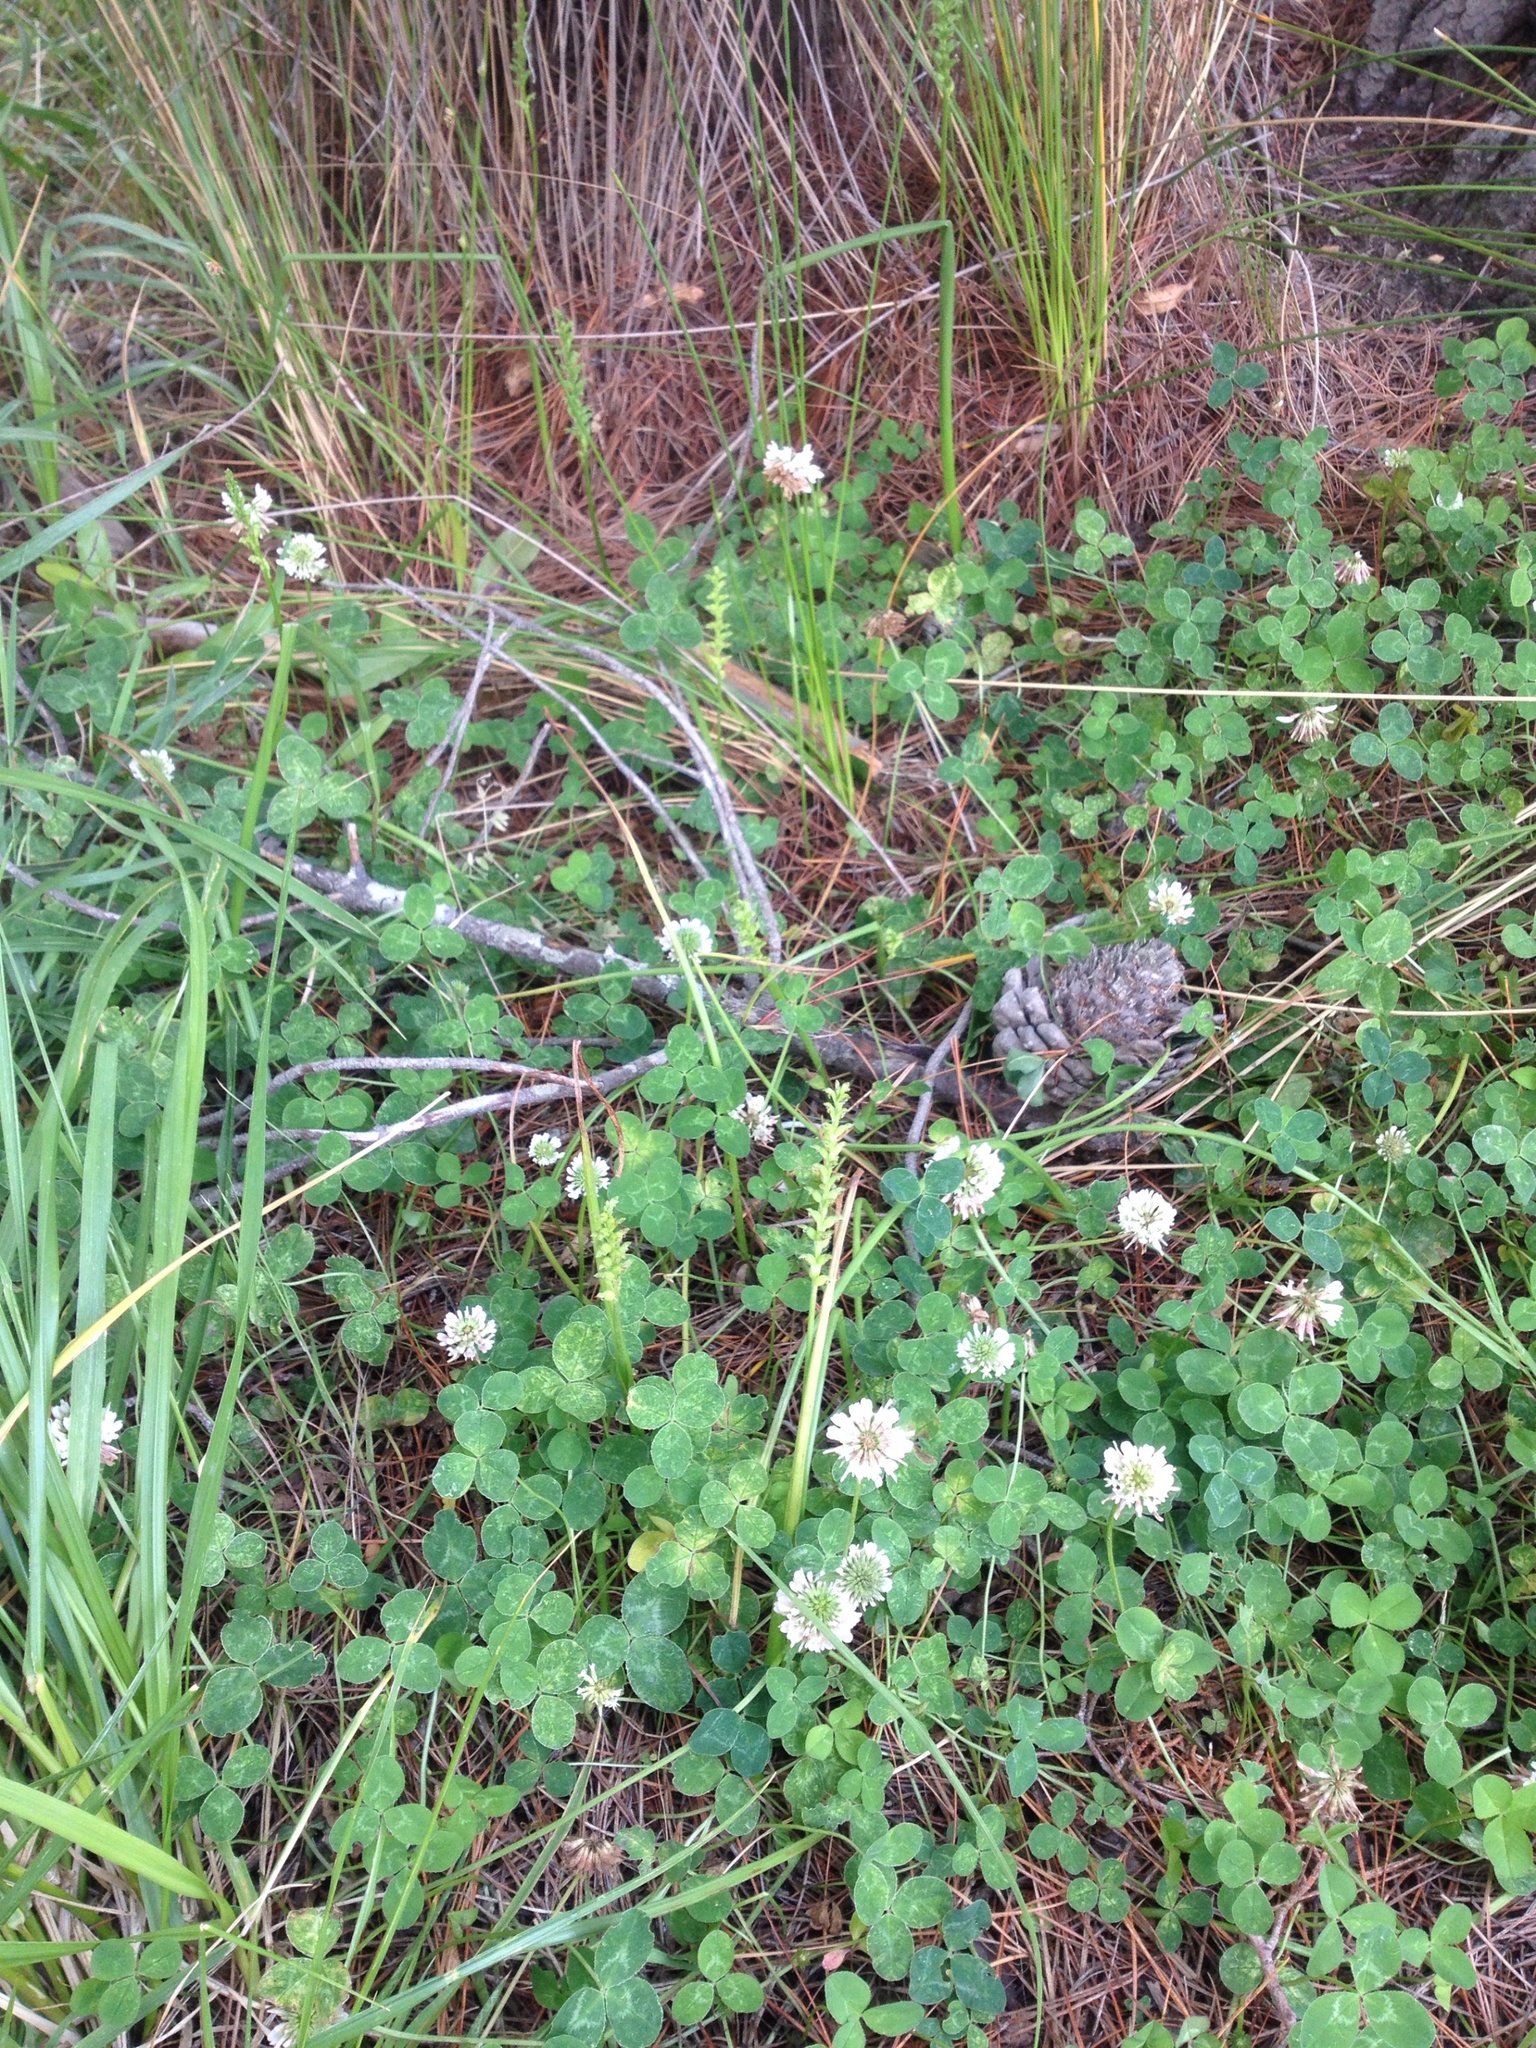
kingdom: Plantae
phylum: Tracheophyta
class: Liliopsida
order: Asparagales
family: Orchidaceae
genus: Microtis
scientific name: Microtis unifolia
